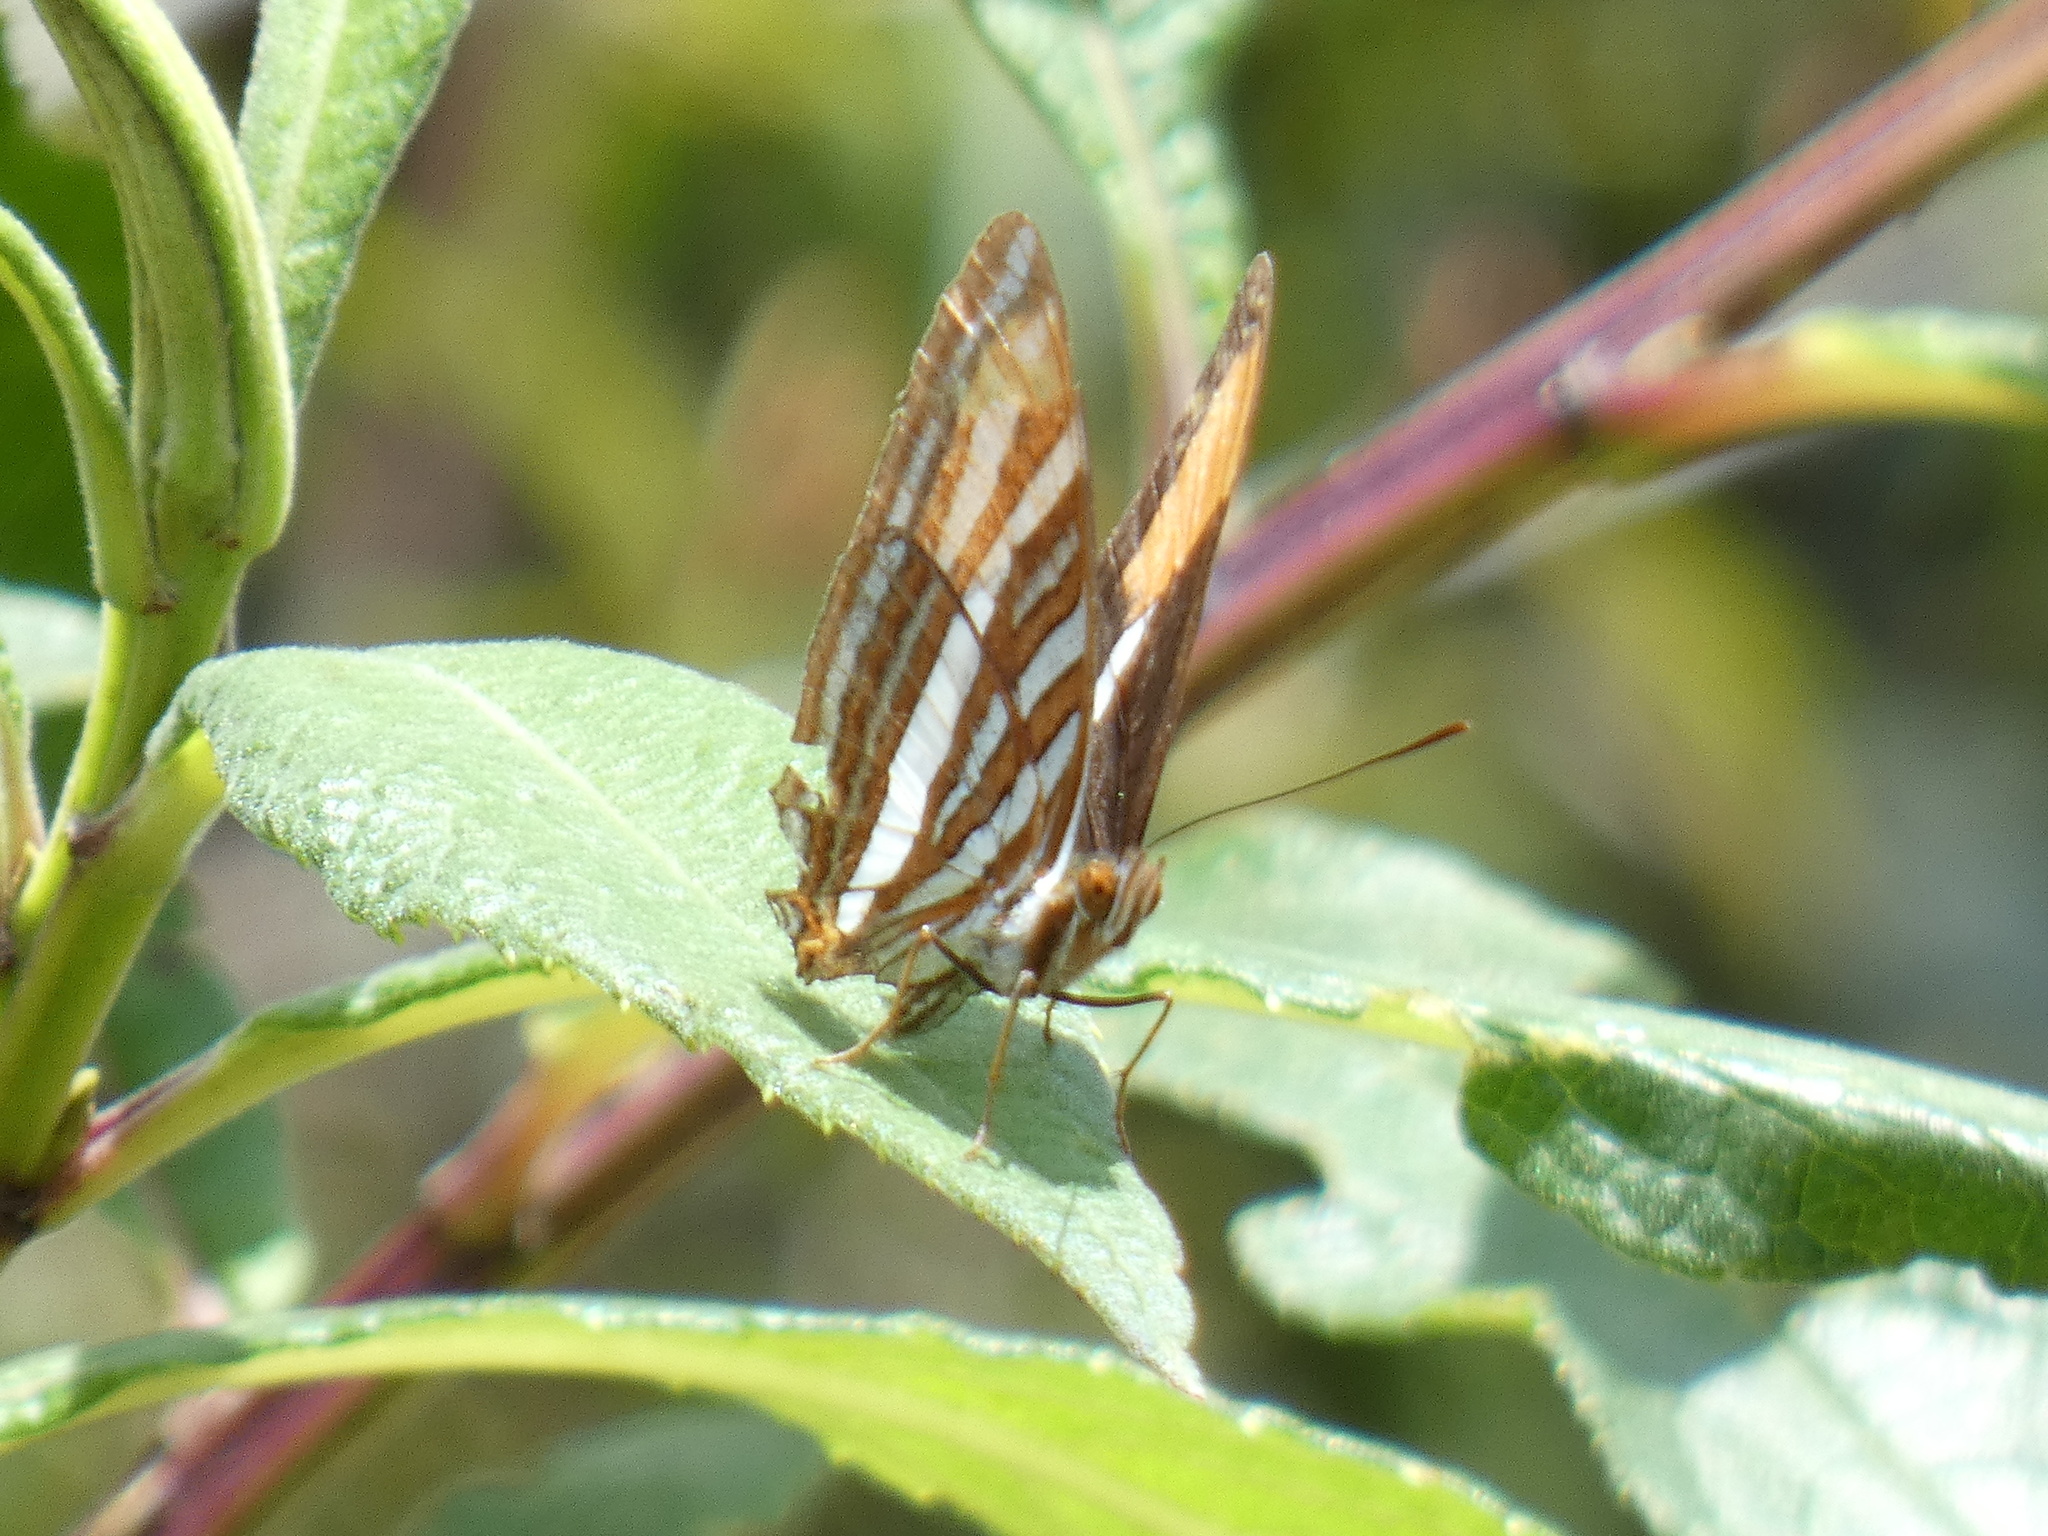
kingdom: Animalia
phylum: Arthropoda
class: Insecta
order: Lepidoptera
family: Nymphalidae
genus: Limenitis
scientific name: Limenitis syma
